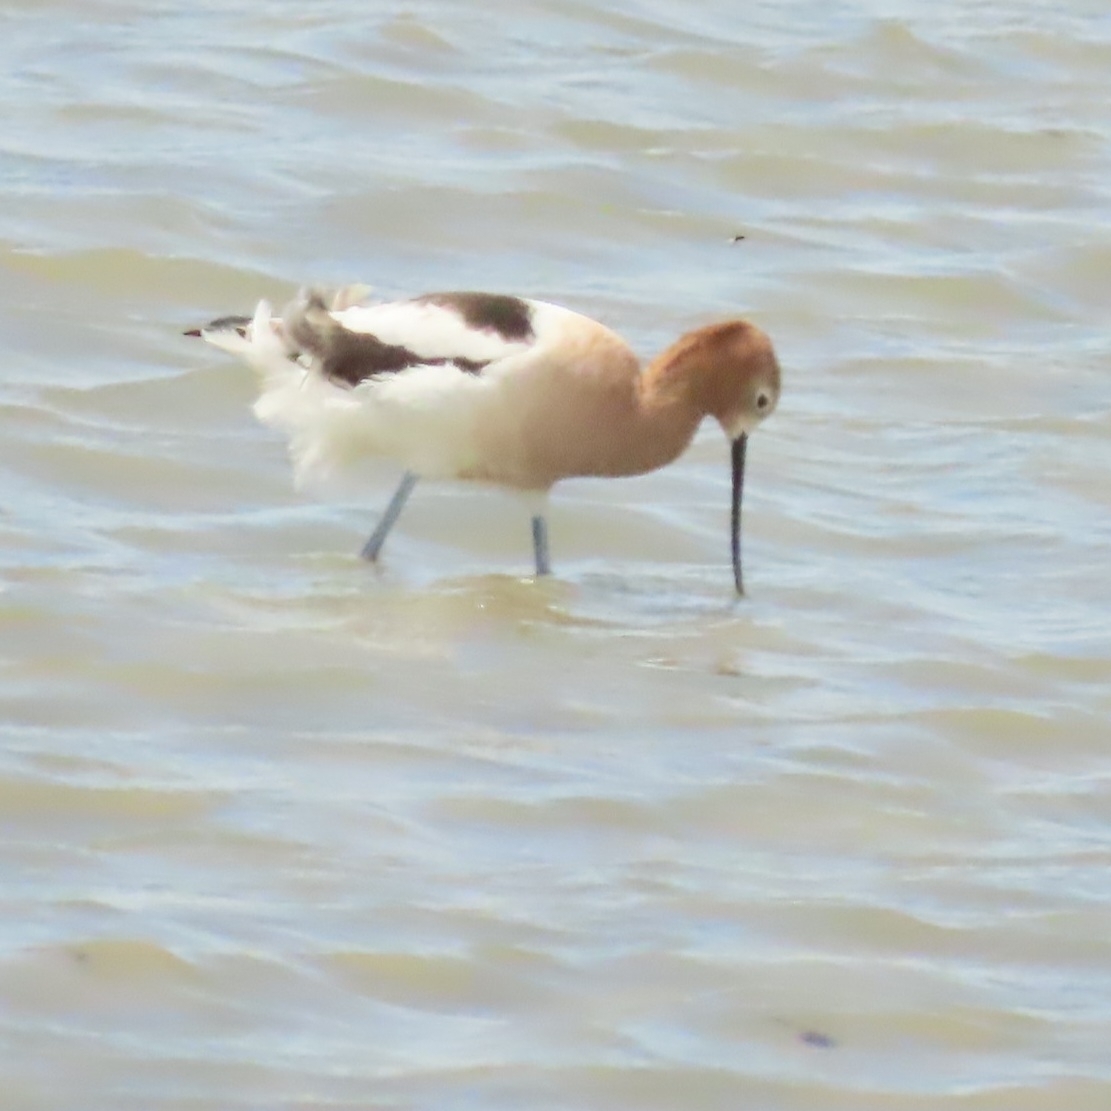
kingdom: Animalia
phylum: Chordata
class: Aves
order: Charadriiformes
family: Recurvirostridae
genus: Recurvirostra
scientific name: Recurvirostra americana
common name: American avocet
